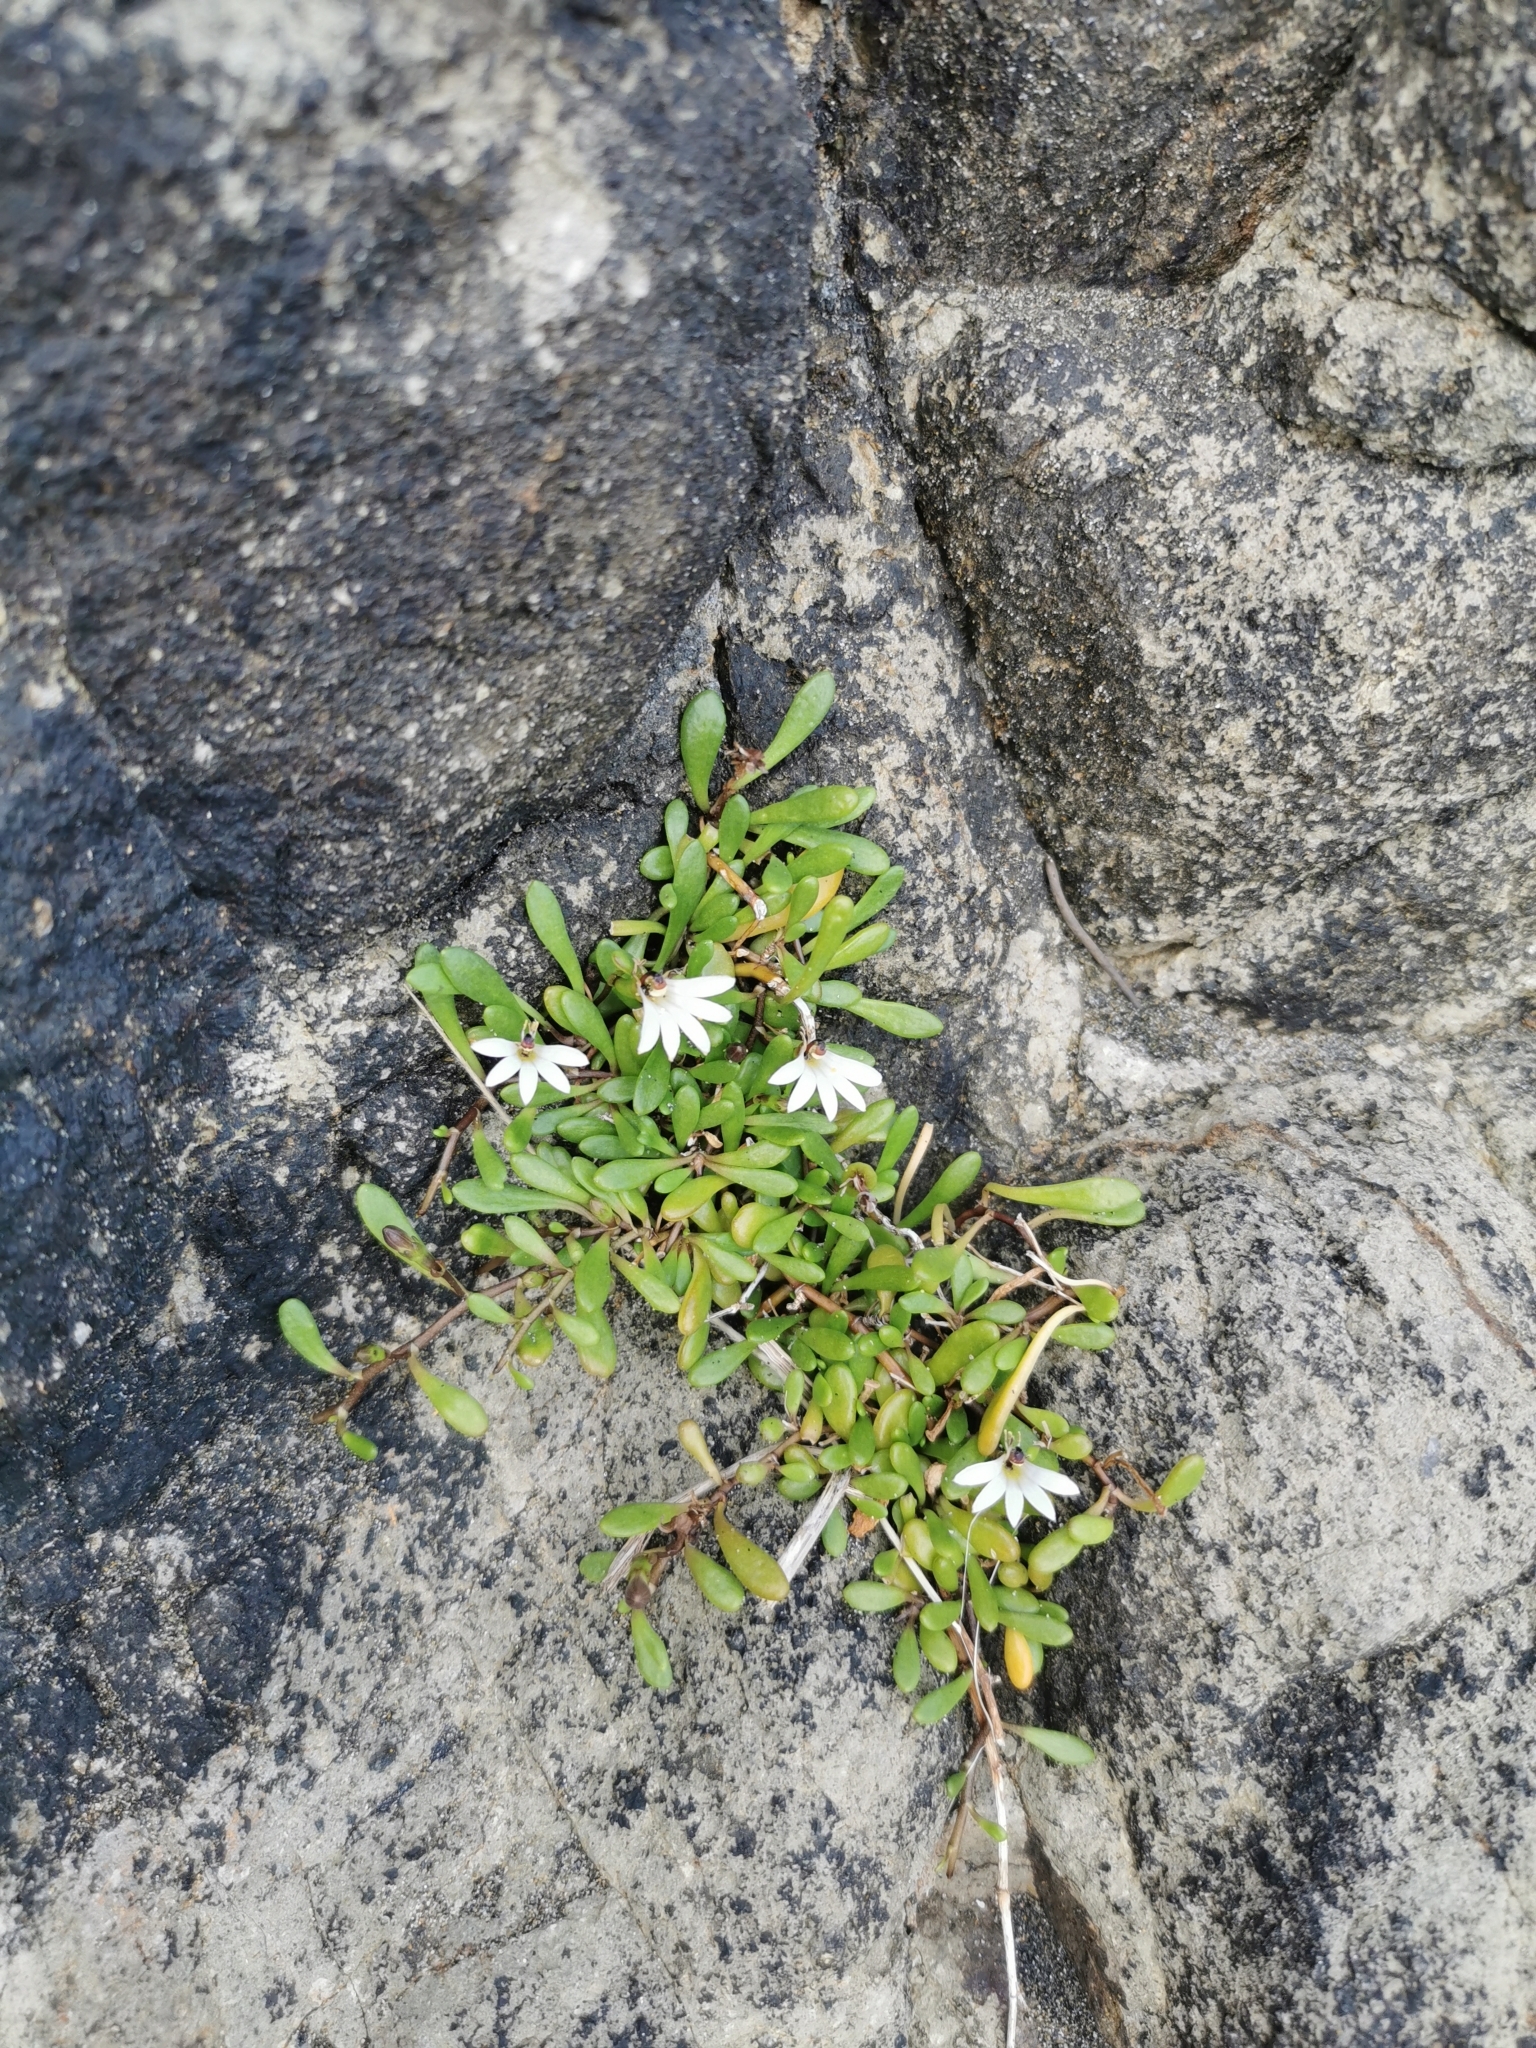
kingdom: Plantae
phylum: Tracheophyta
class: Magnoliopsida
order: Asterales
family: Goodeniaceae
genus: Goodenia
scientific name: Goodenia radicans
